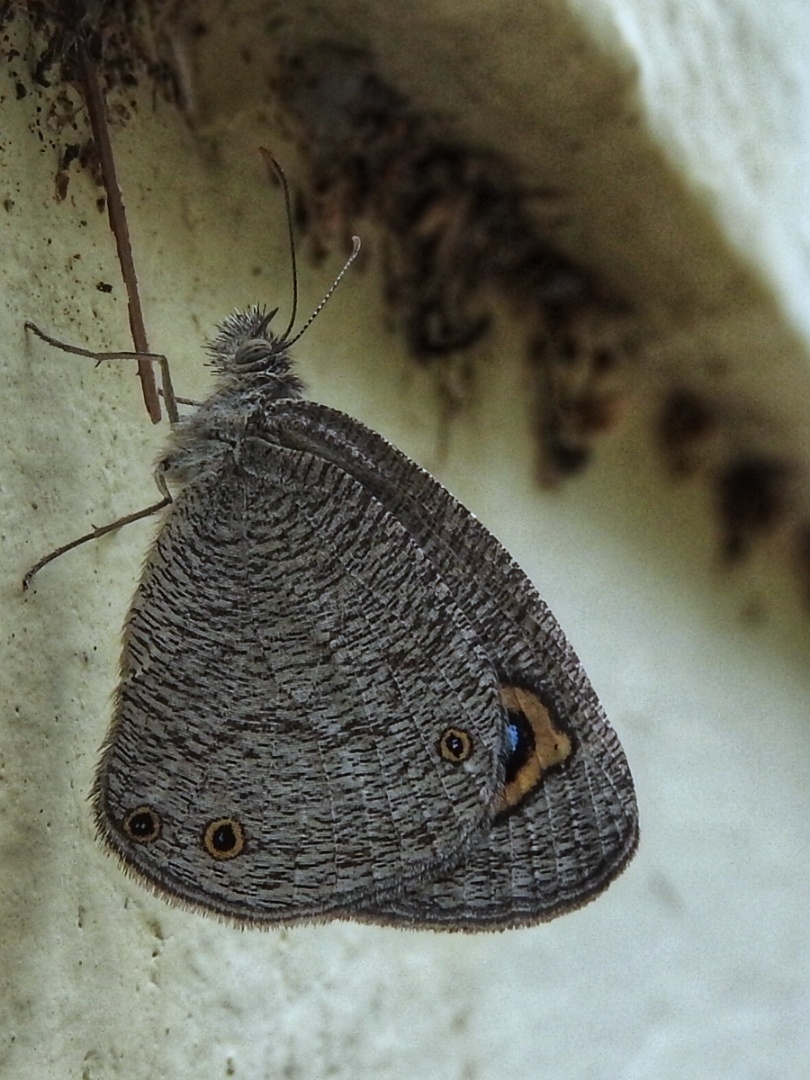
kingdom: Animalia
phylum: Arthropoda
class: Insecta
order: Lepidoptera
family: Nymphalidae
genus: Ypthima
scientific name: Ypthima asterope
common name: African ringlet
